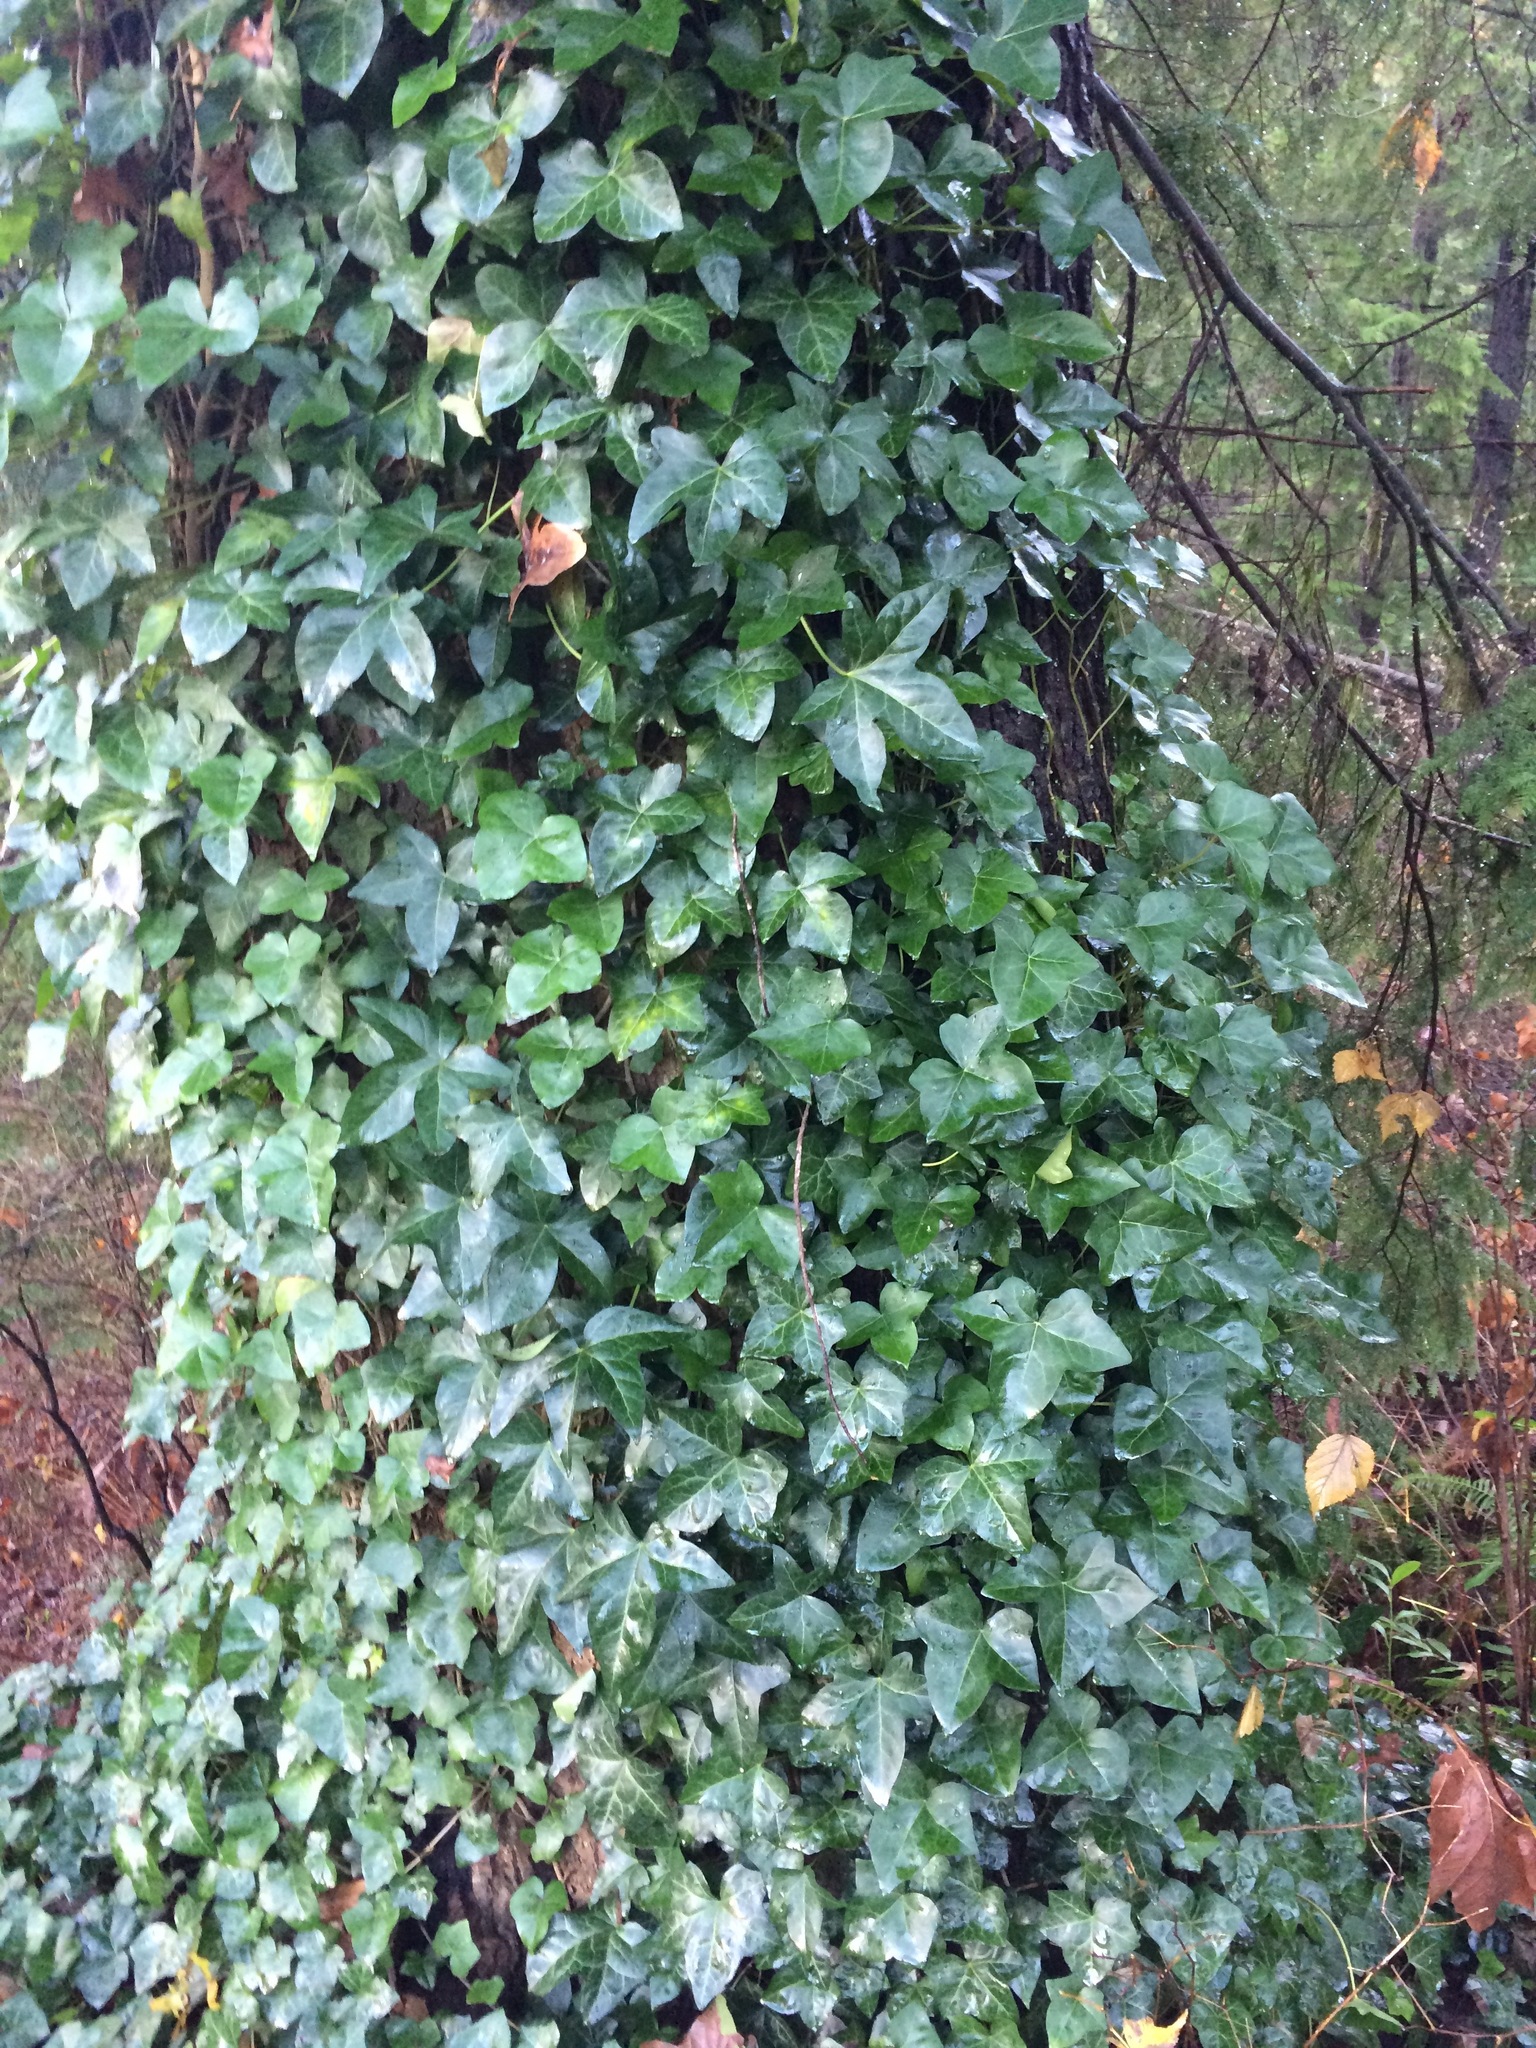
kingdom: Plantae
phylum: Tracheophyta
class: Magnoliopsida
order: Apiales
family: Araliaceae
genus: Hedera
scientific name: Hedera helix
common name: Ivy
